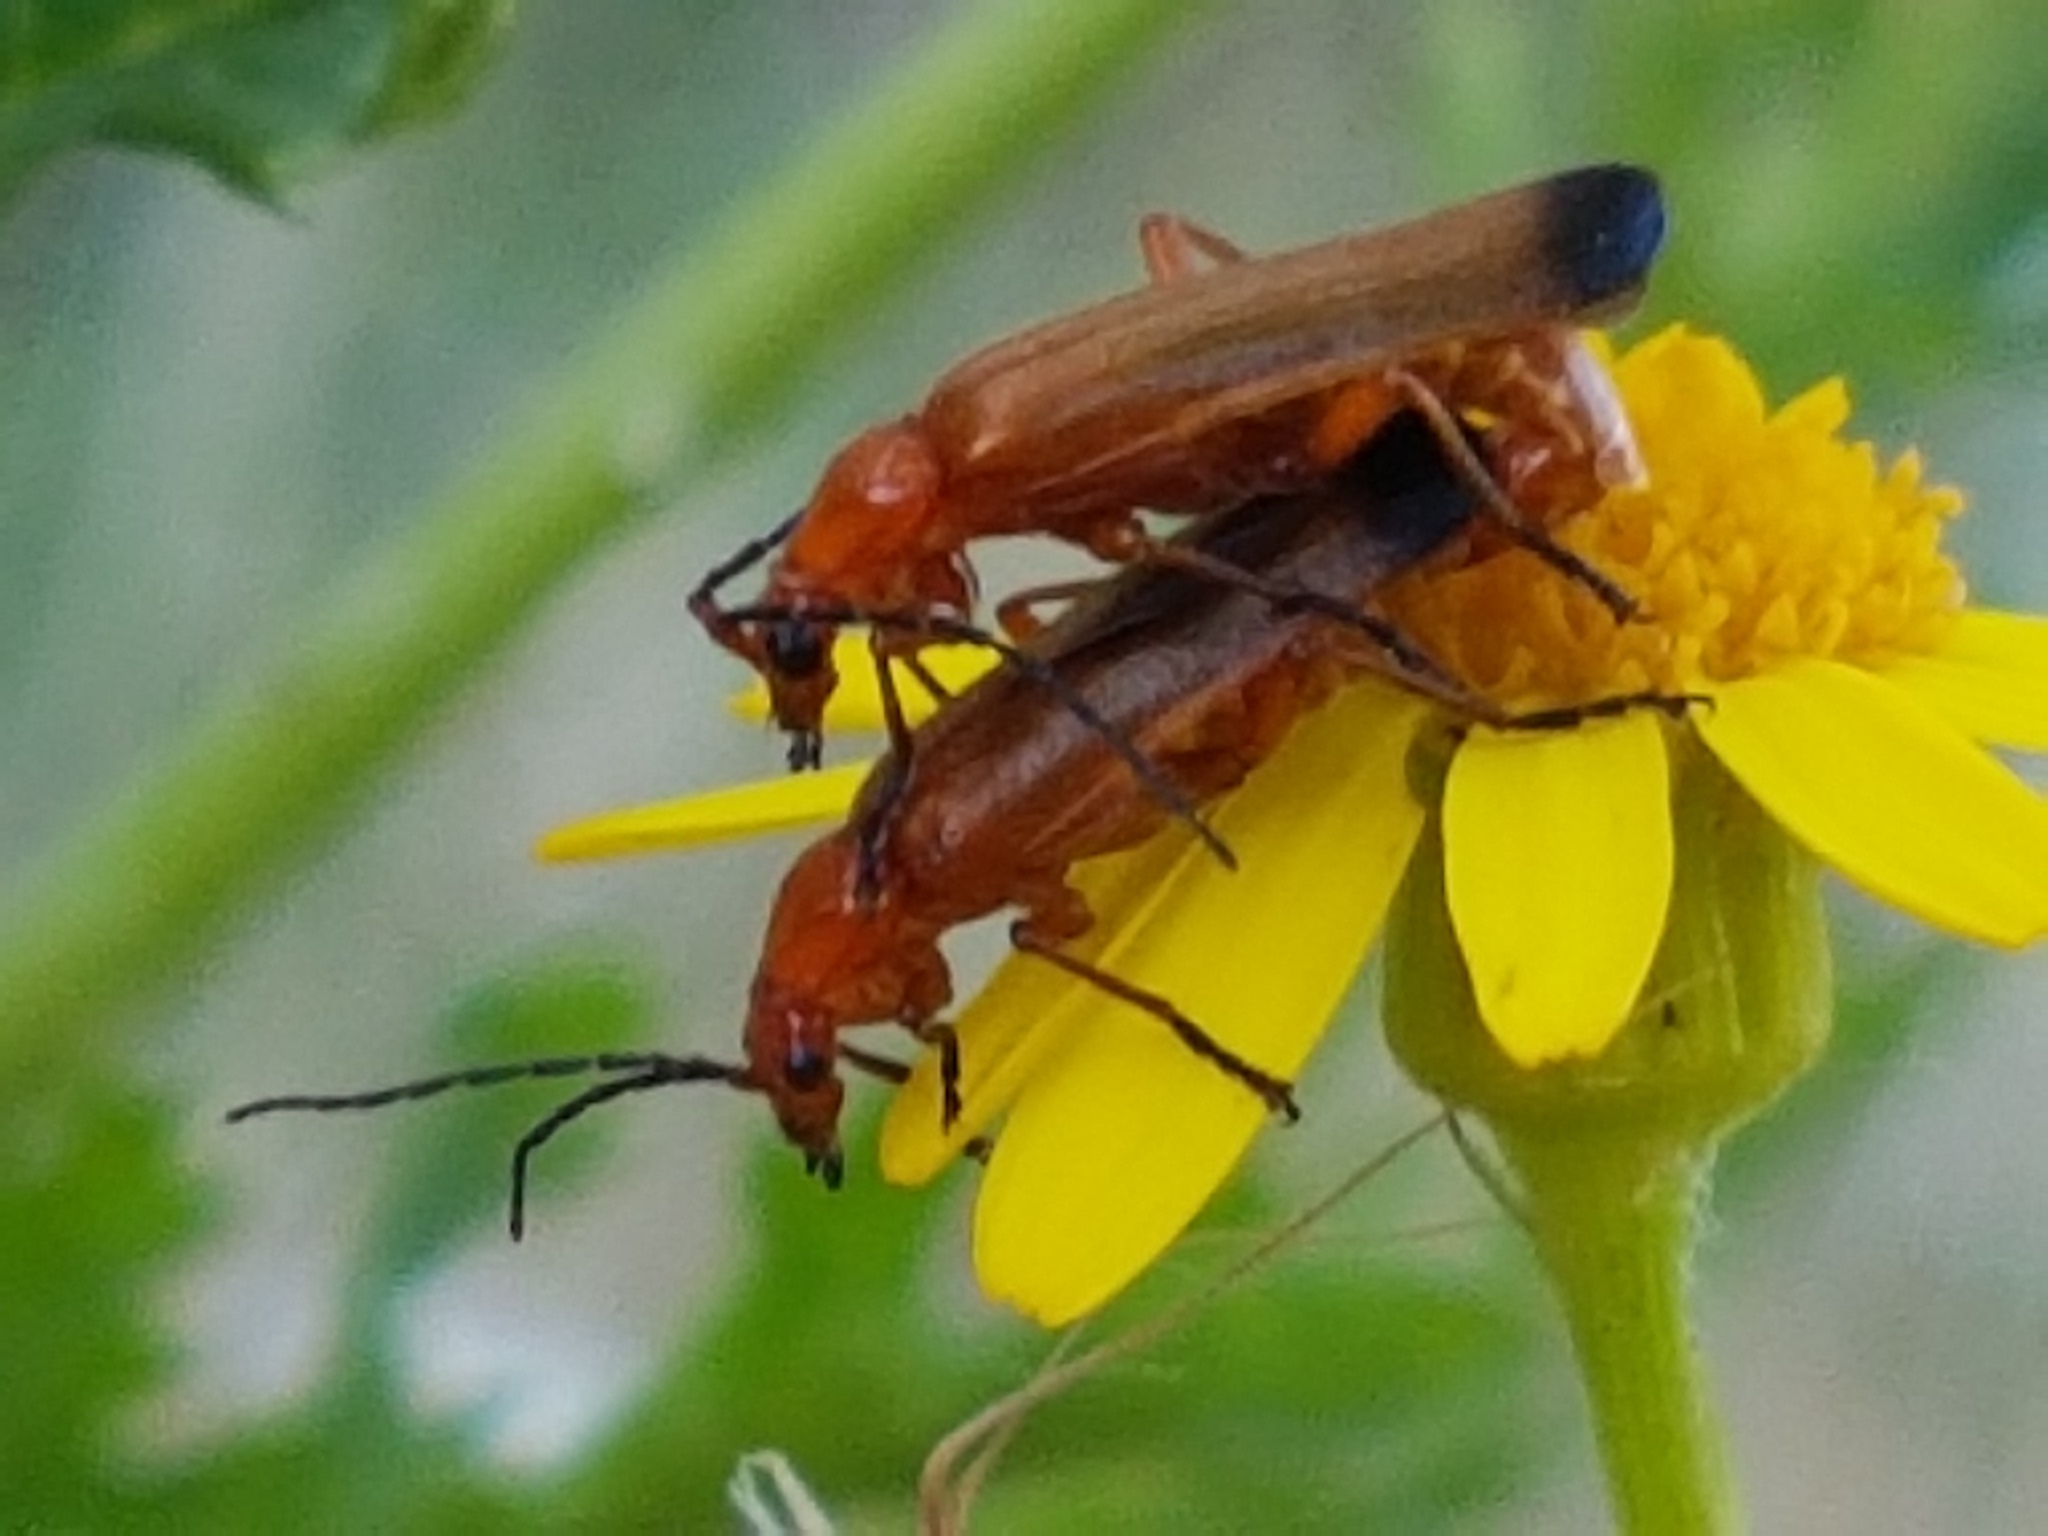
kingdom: Animalia
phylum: Arthropoda
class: Insecta
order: Coleoptera
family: Cantharidae
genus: Rhagonycha
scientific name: Rhagonycha fulva
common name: Common red soldier beetle
